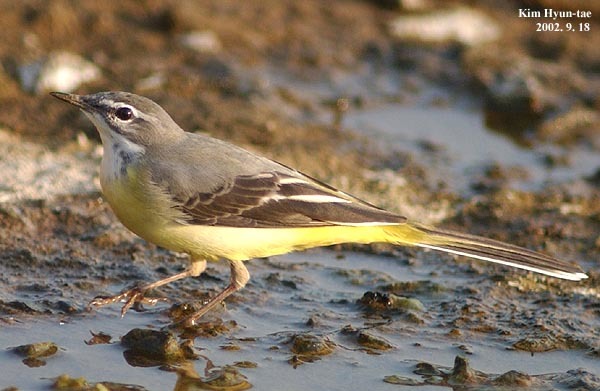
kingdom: Animalia
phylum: Chordata
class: Aves
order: Passeriformes
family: Motacillidae
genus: Motacilla
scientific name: Motacilla cinerea
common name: Grey wagtail
